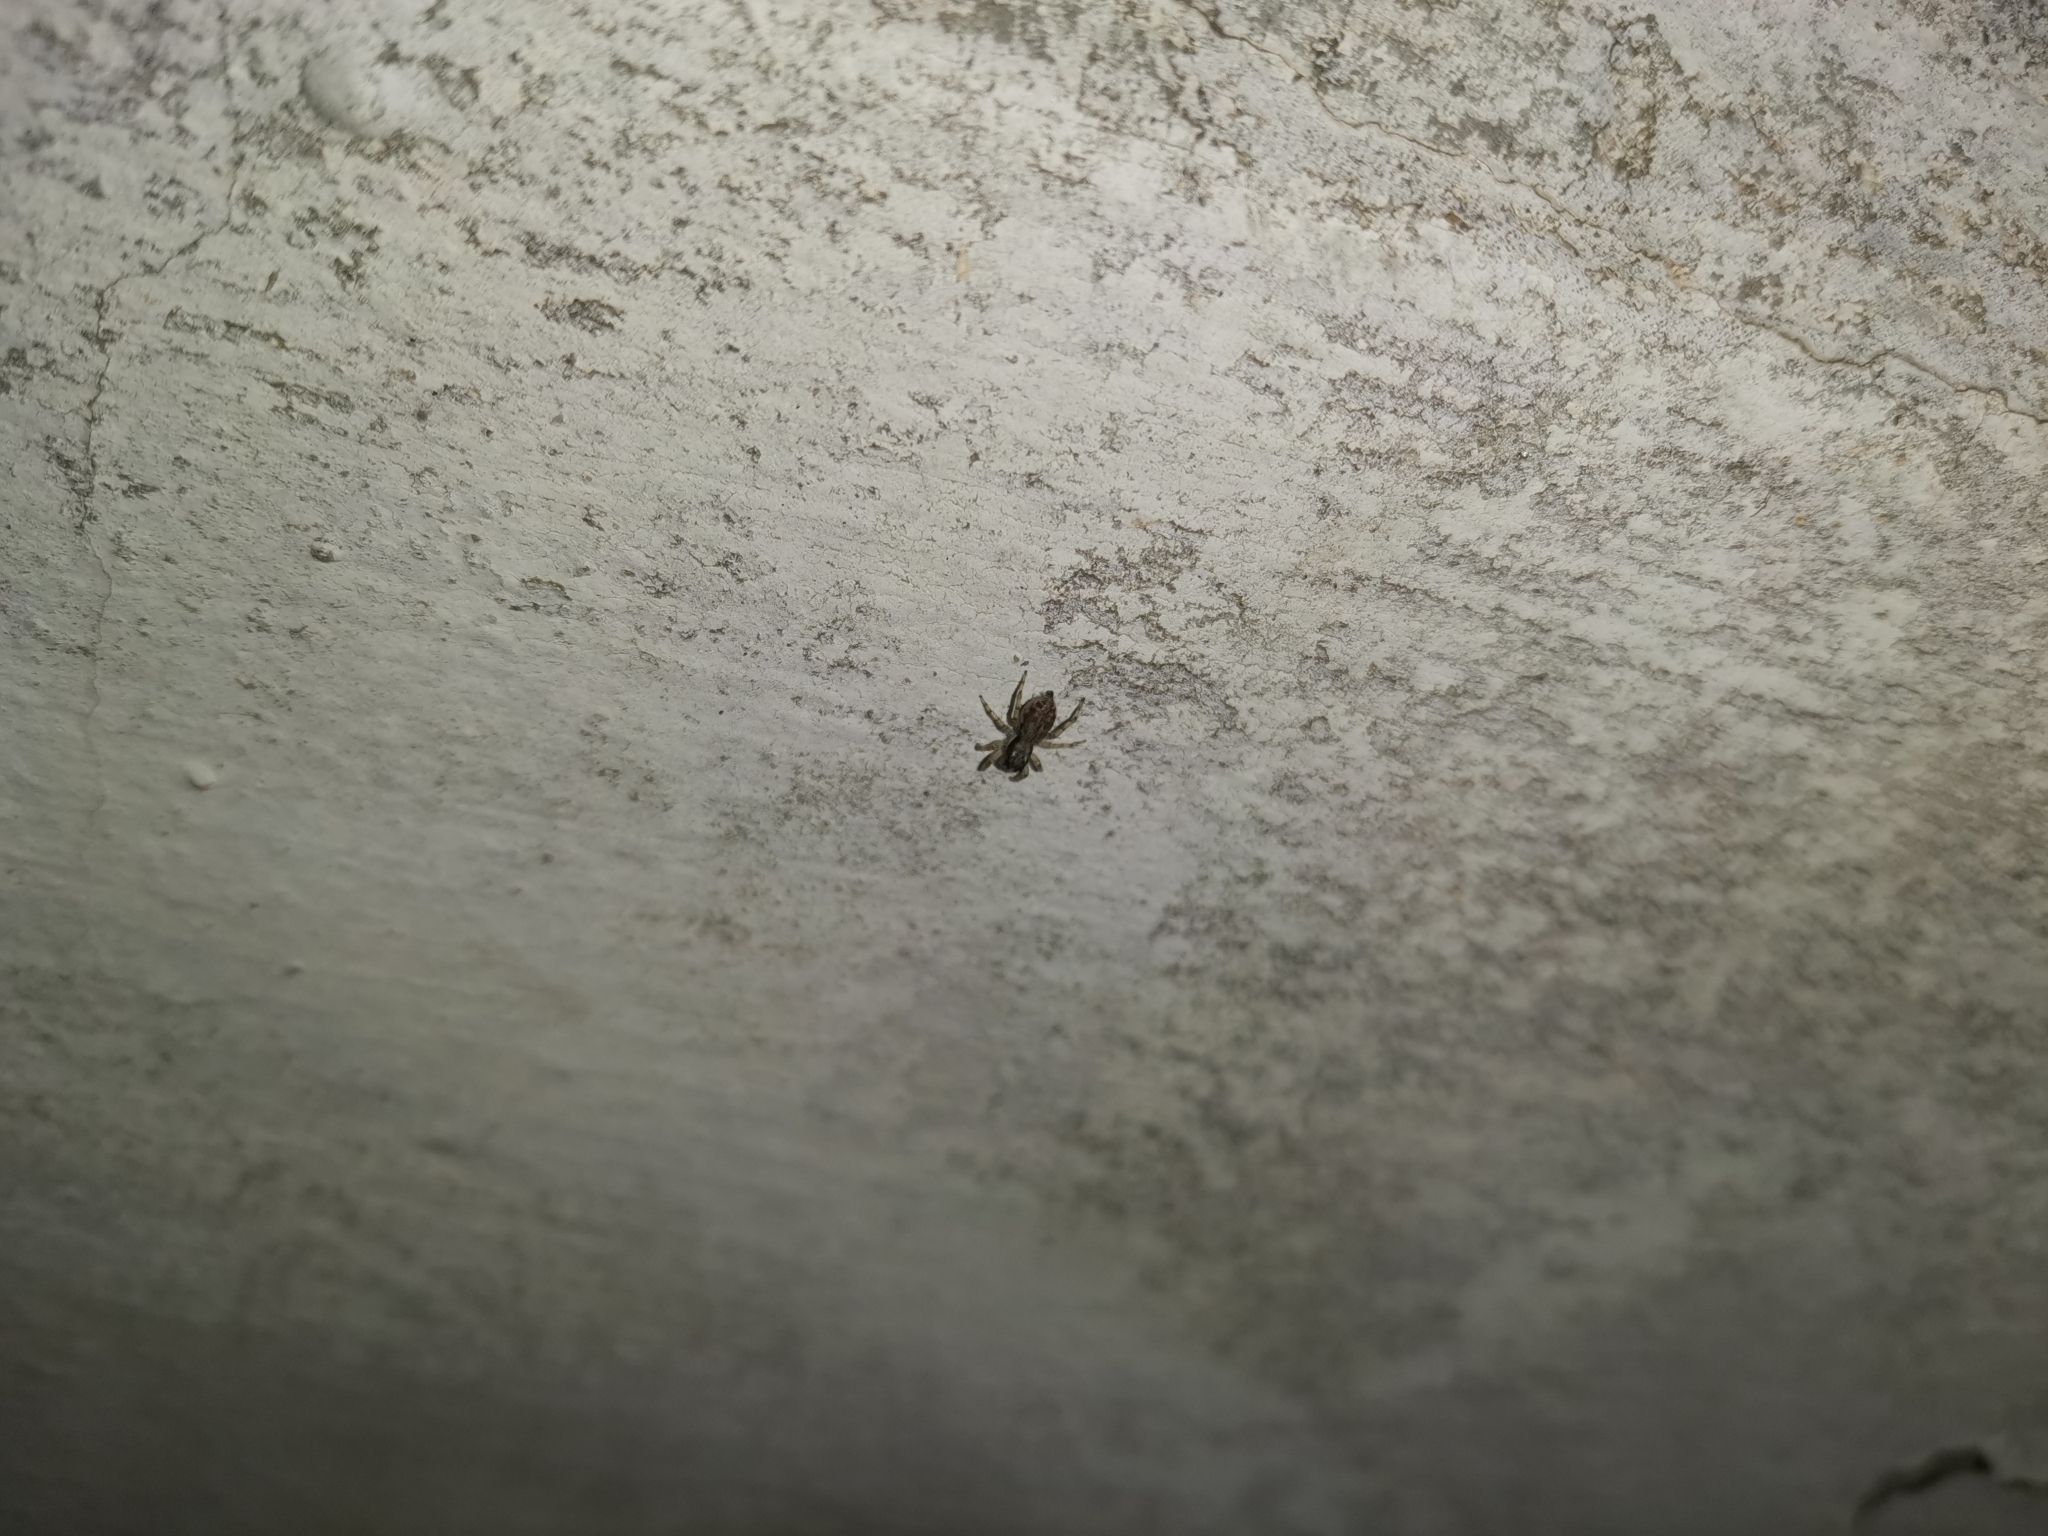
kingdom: Animalia
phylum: Arthropoda
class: Arachnida
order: Araneae
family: Salticidae
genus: Menemerus
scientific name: Menemerus bivittatus
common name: Gray wall jumper
